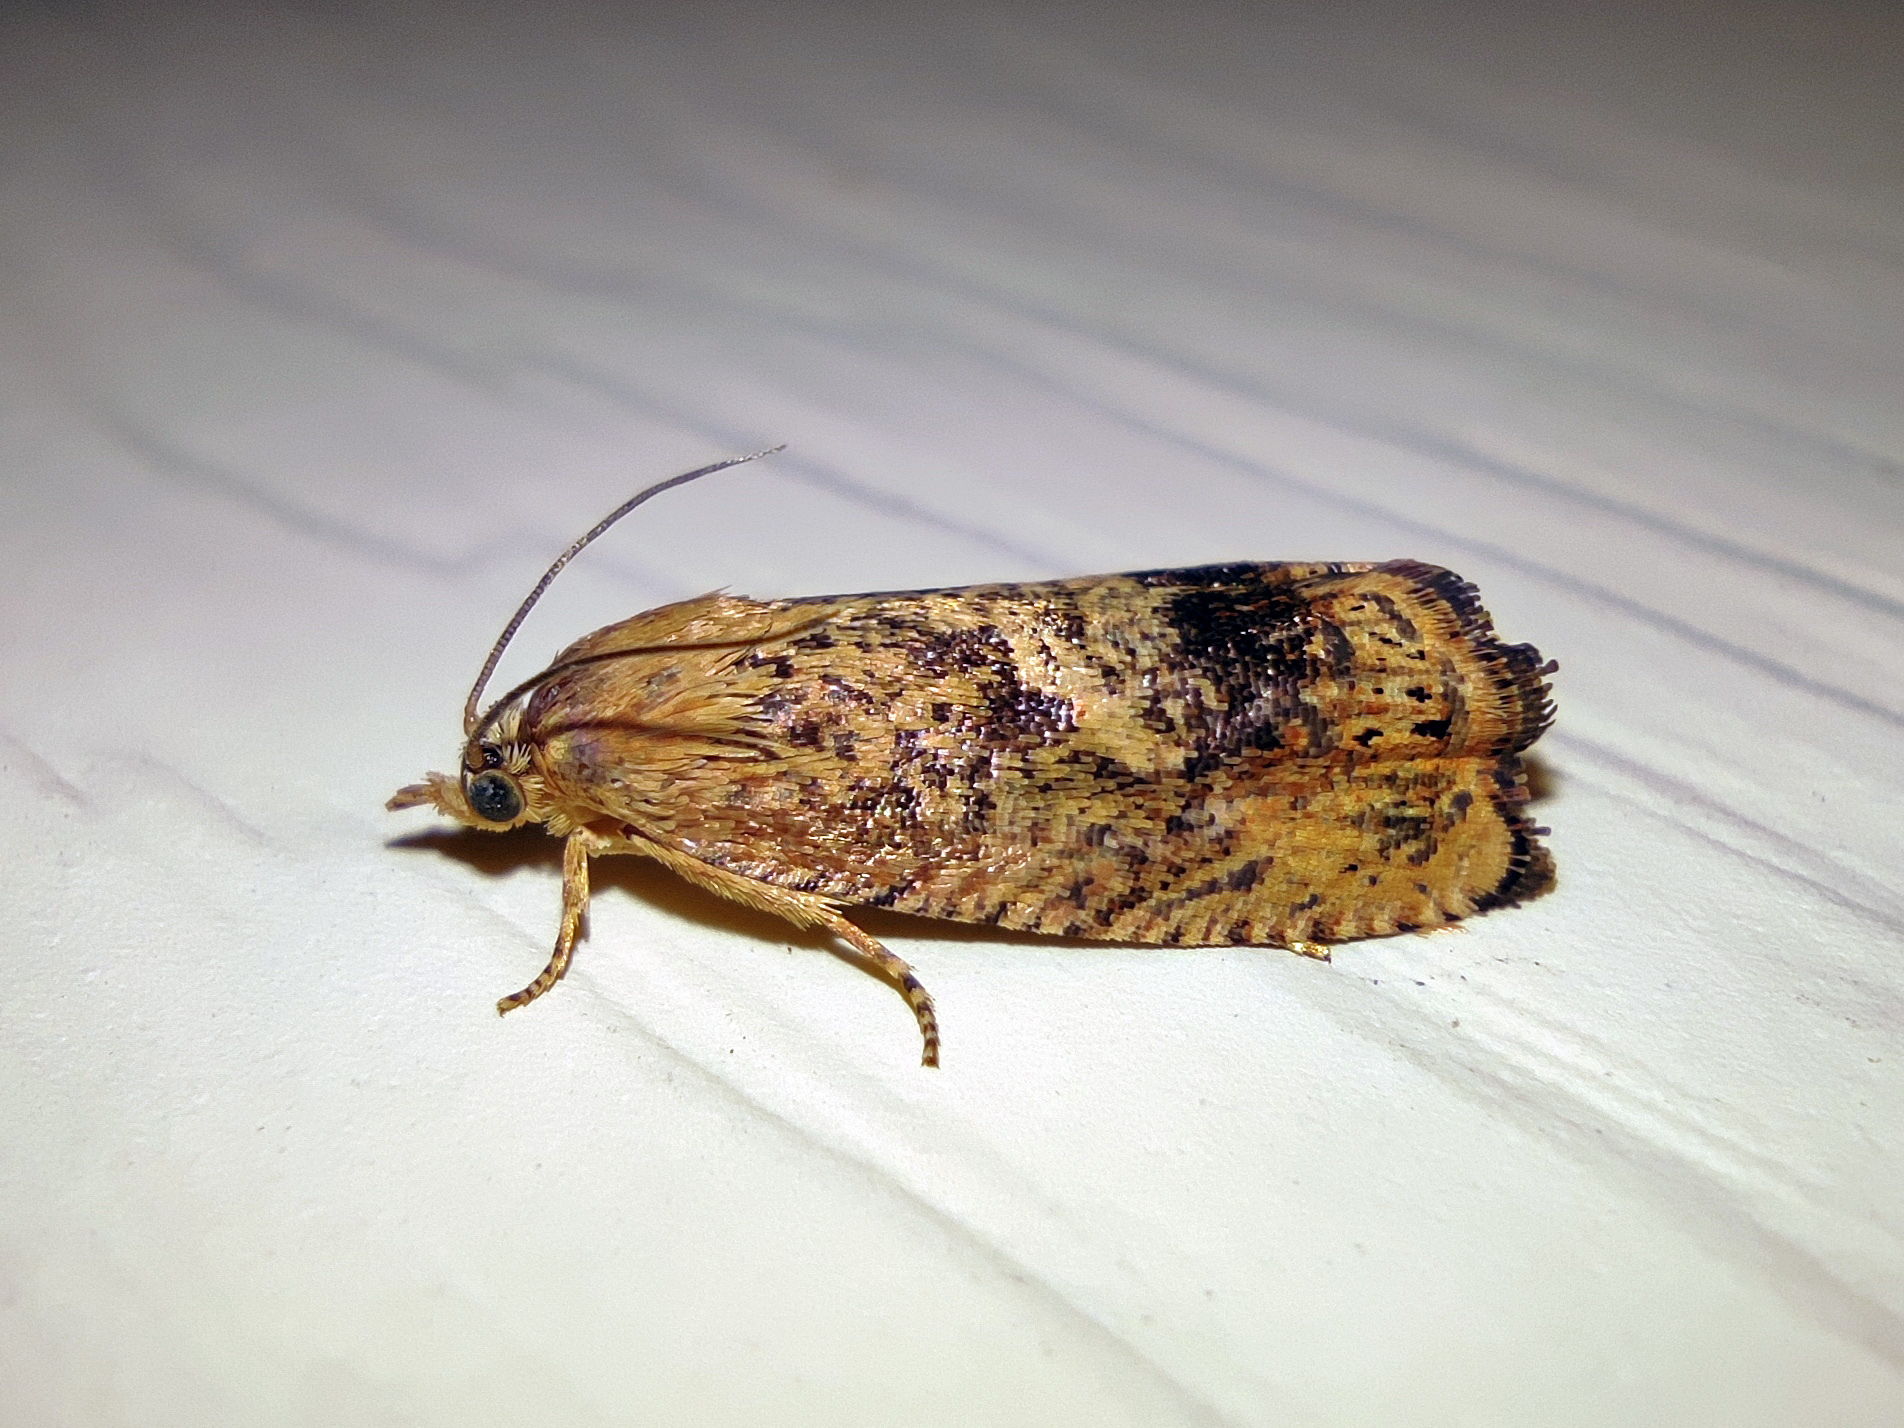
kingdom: Animalia
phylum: Arthropoda
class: Insecta
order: Lepidoptera
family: Tortricidae
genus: Cydia
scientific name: Cydia amplana
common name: Vagrant piercer
